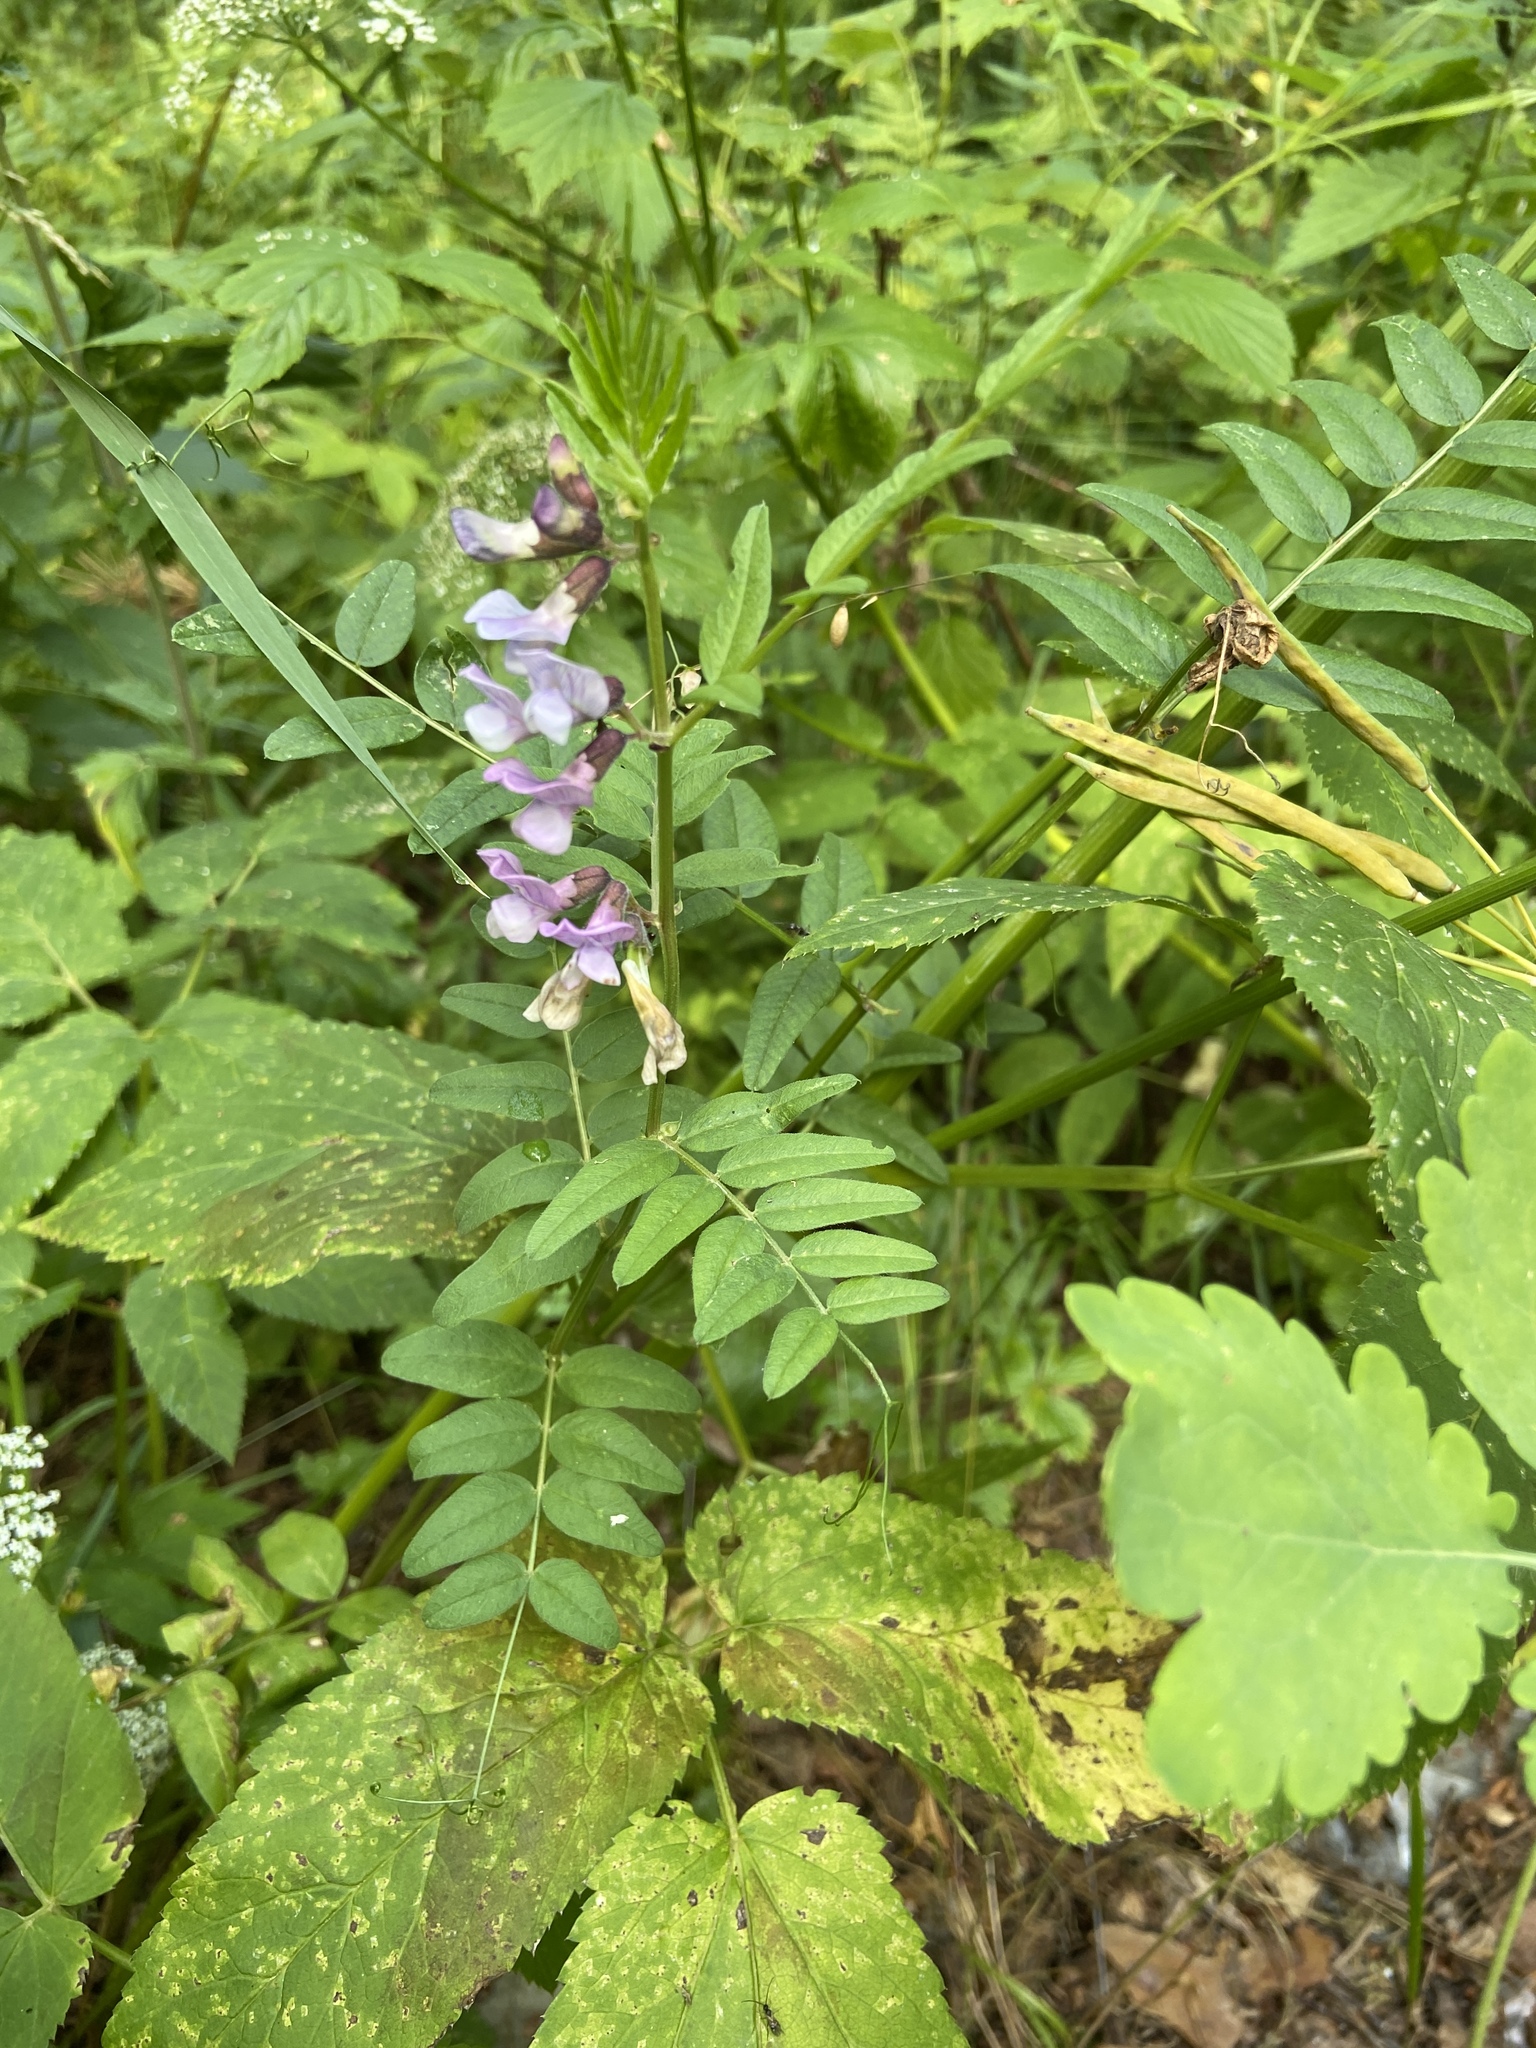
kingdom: Plantae
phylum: Tracheophyta
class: Magnoliopsida
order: Fabales
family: Fabaceae
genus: Vicia
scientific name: Vicia sepium
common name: Bush vetch
